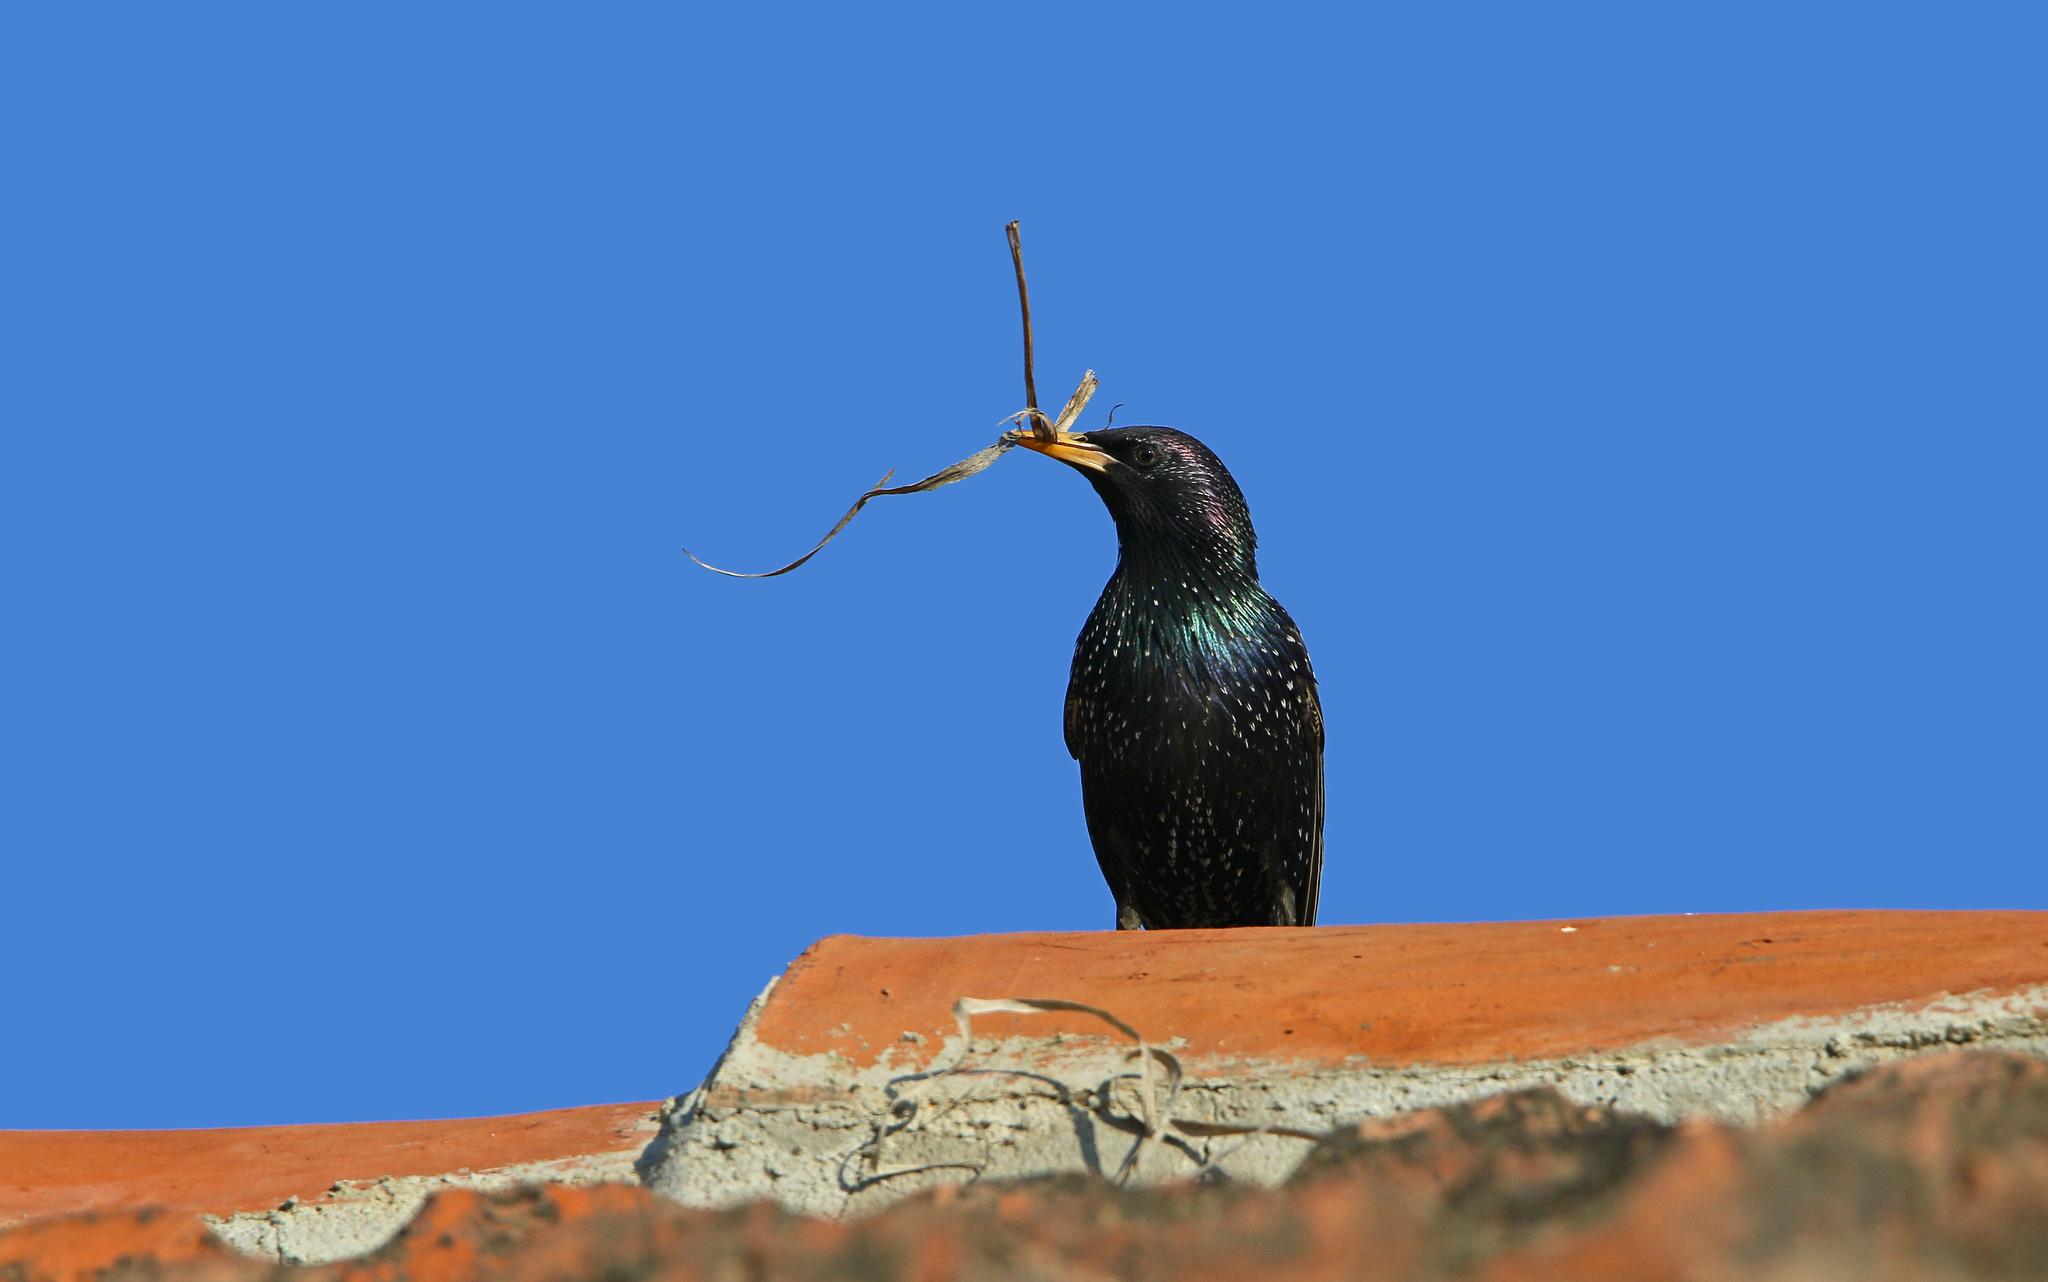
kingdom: Animalia
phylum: Chordata
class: Aves
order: Passeriformes
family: Sturnidae
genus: Sturnus
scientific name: Sturnus vulgaris
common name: Common starling
